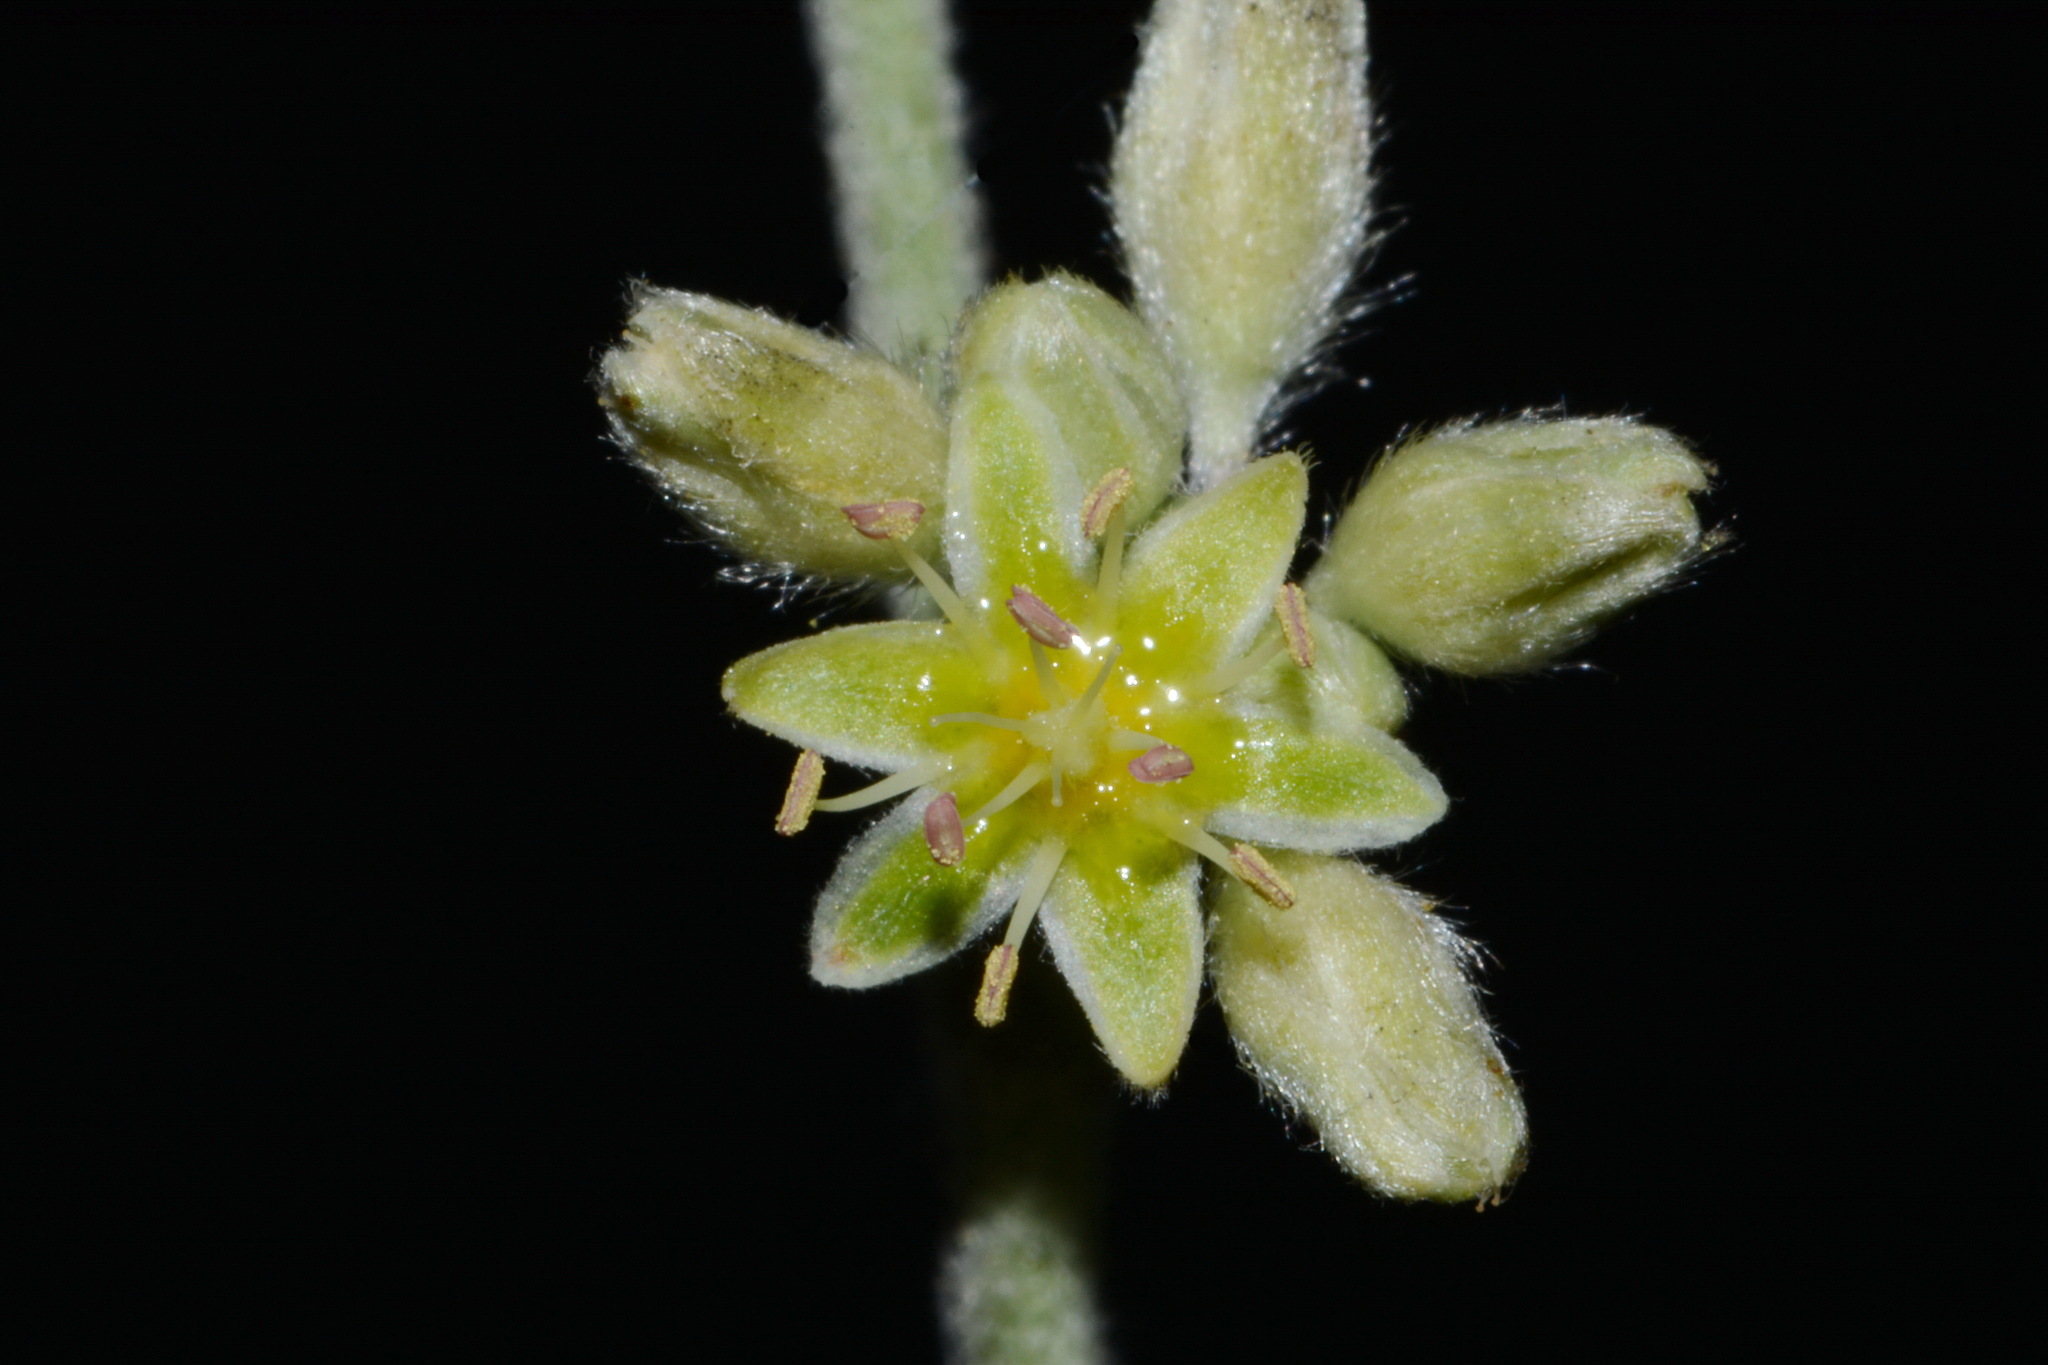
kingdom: Plantae
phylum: Tracheophyta
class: Magnoliopsida
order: Caryophyllales
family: Polygonaceae
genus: Eriogonum
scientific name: Eriogonum longifolium
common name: Longleaf wild buckwheat
